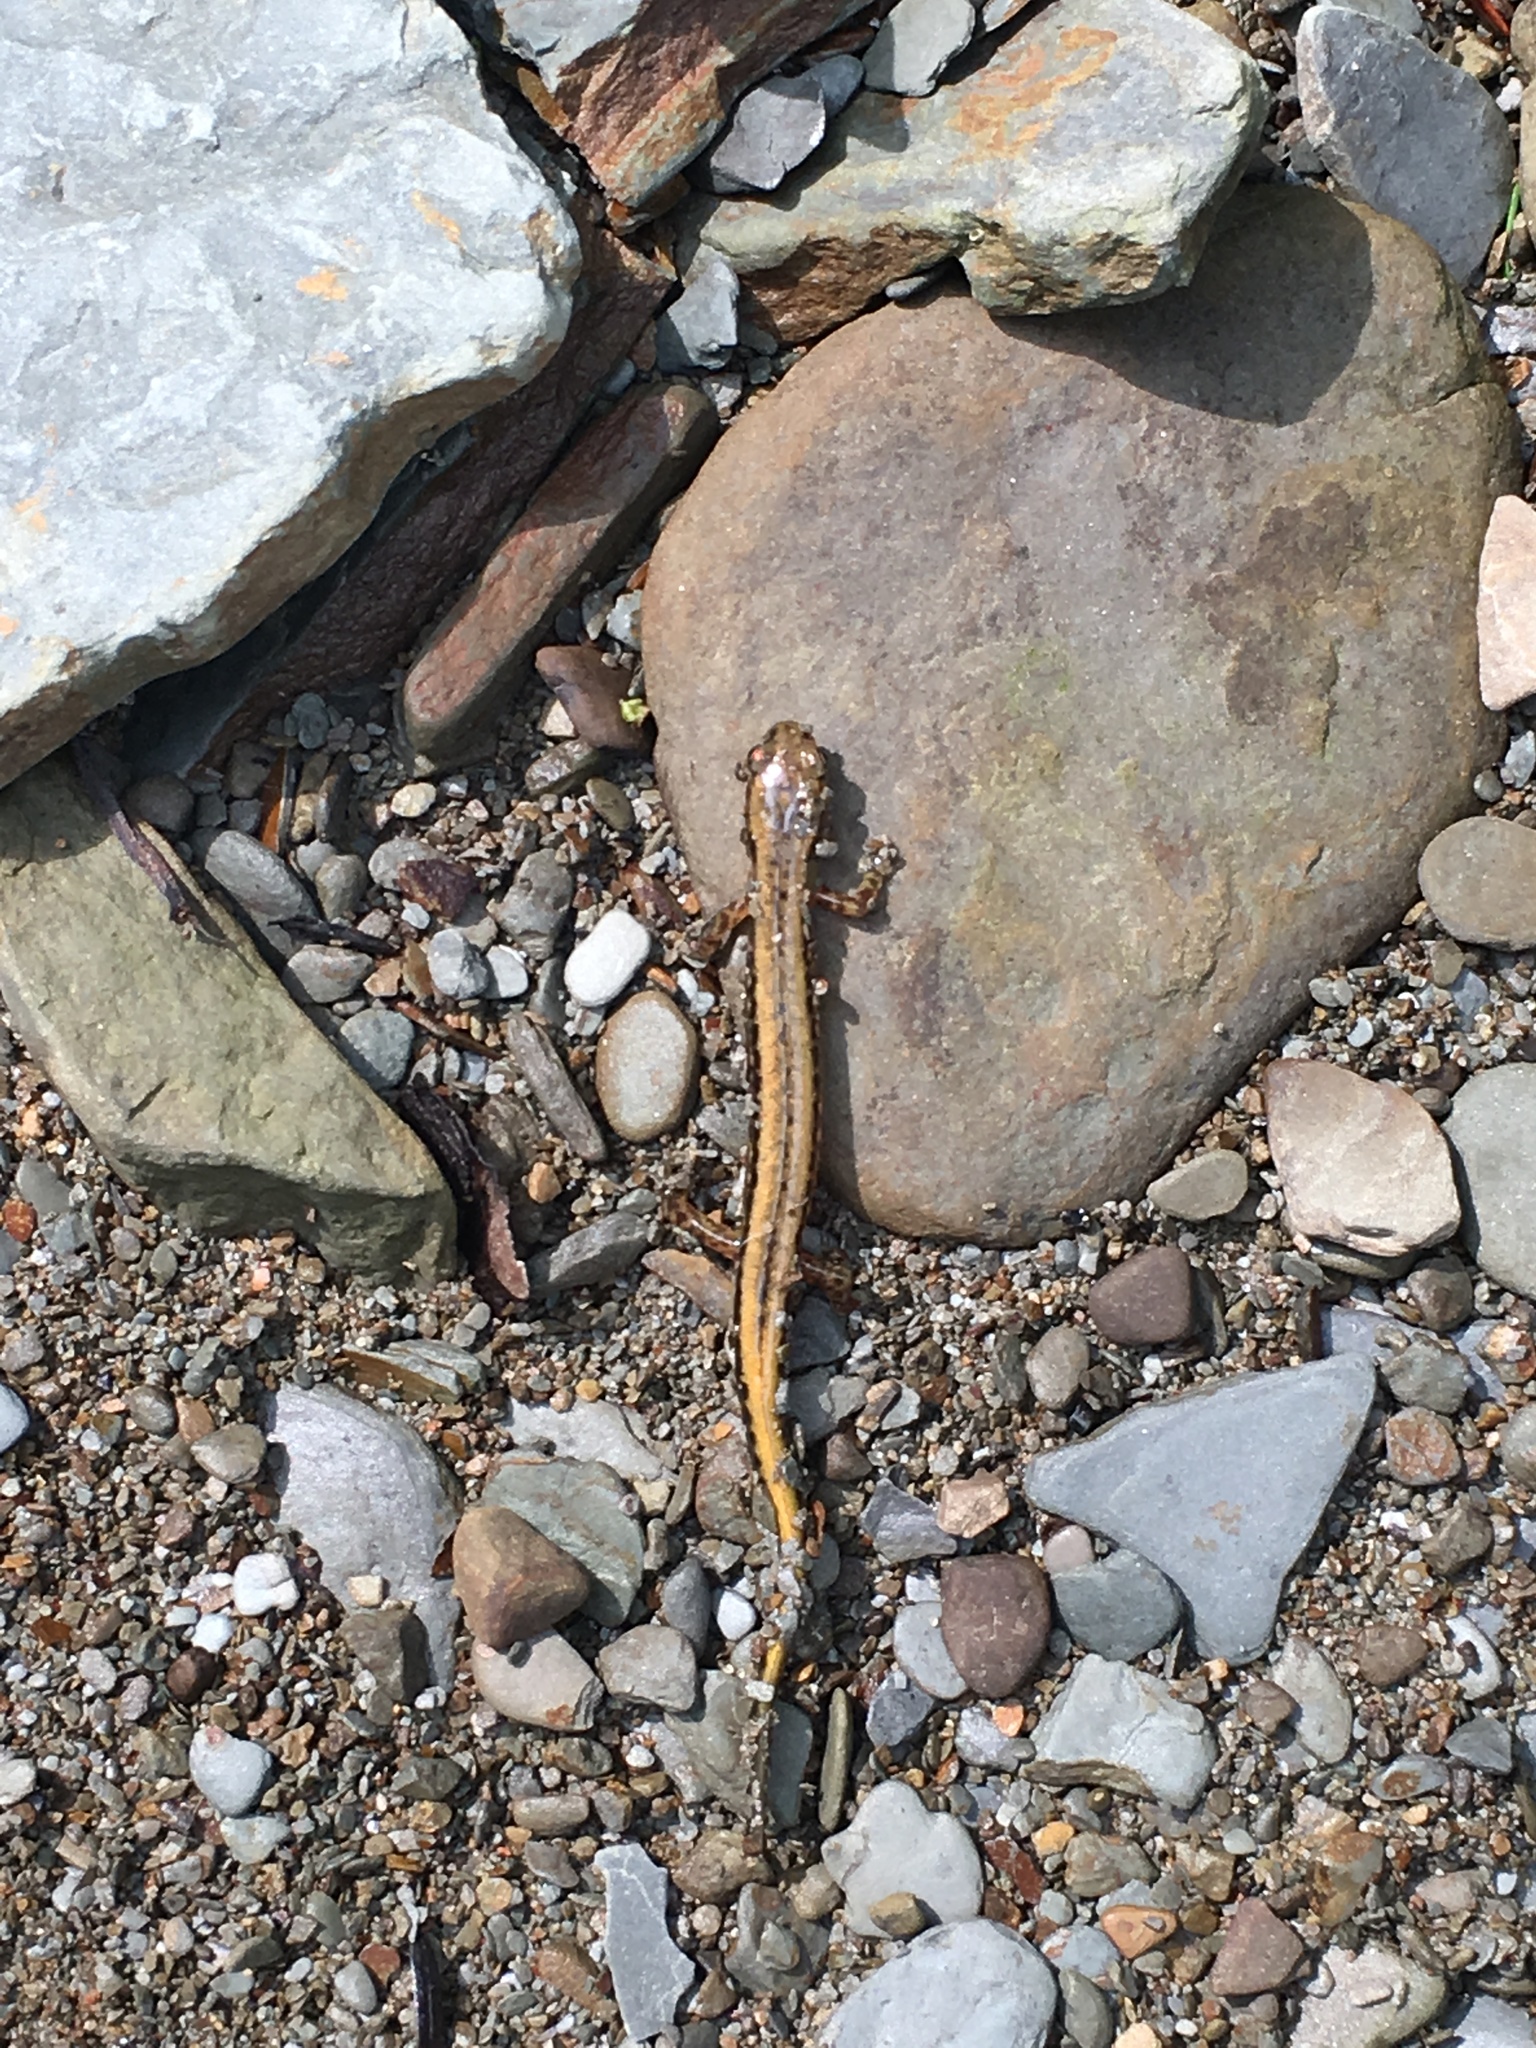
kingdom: Animalia
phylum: Chordata
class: Amphibia
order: Caudata
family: Plethodontidae
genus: Eurycea
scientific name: Eurycea bislineata
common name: Northern two-lined salamander
